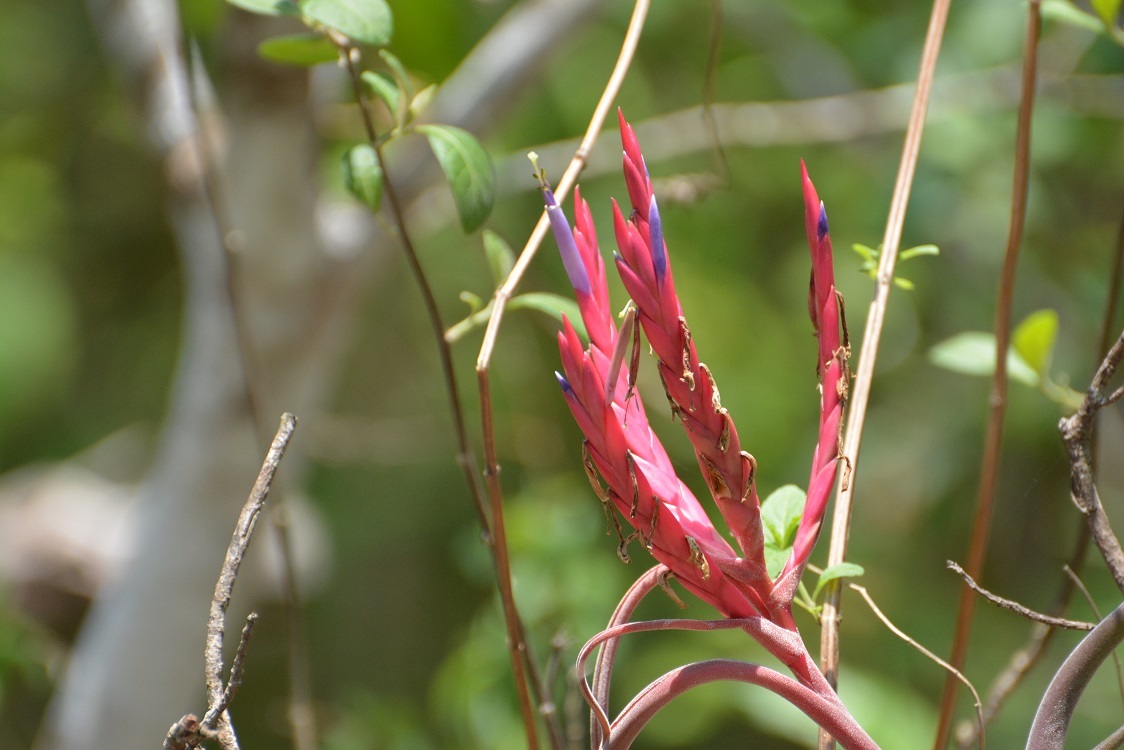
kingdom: Plantae
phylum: Tracheophyta
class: Liliopsida
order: Poales
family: Bromeliaceae
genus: Tillandsia
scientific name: Tillandsia caput-medusae
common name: Octopus plant
